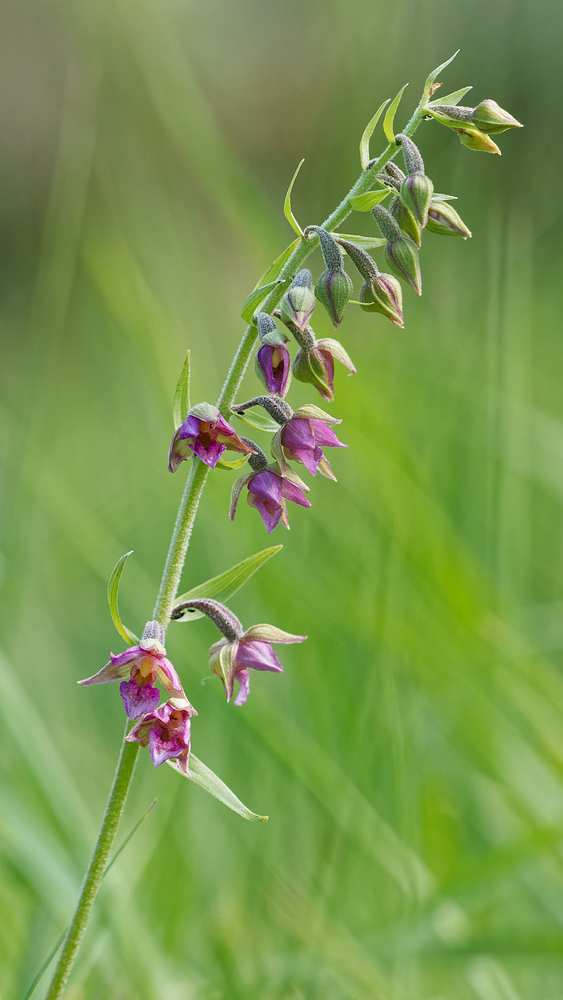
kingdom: Plantae
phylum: Tracheophyta
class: Liliopsida
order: Asparagales
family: Orchidaceae
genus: Epipactis
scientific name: Epipactis pupplingensis
